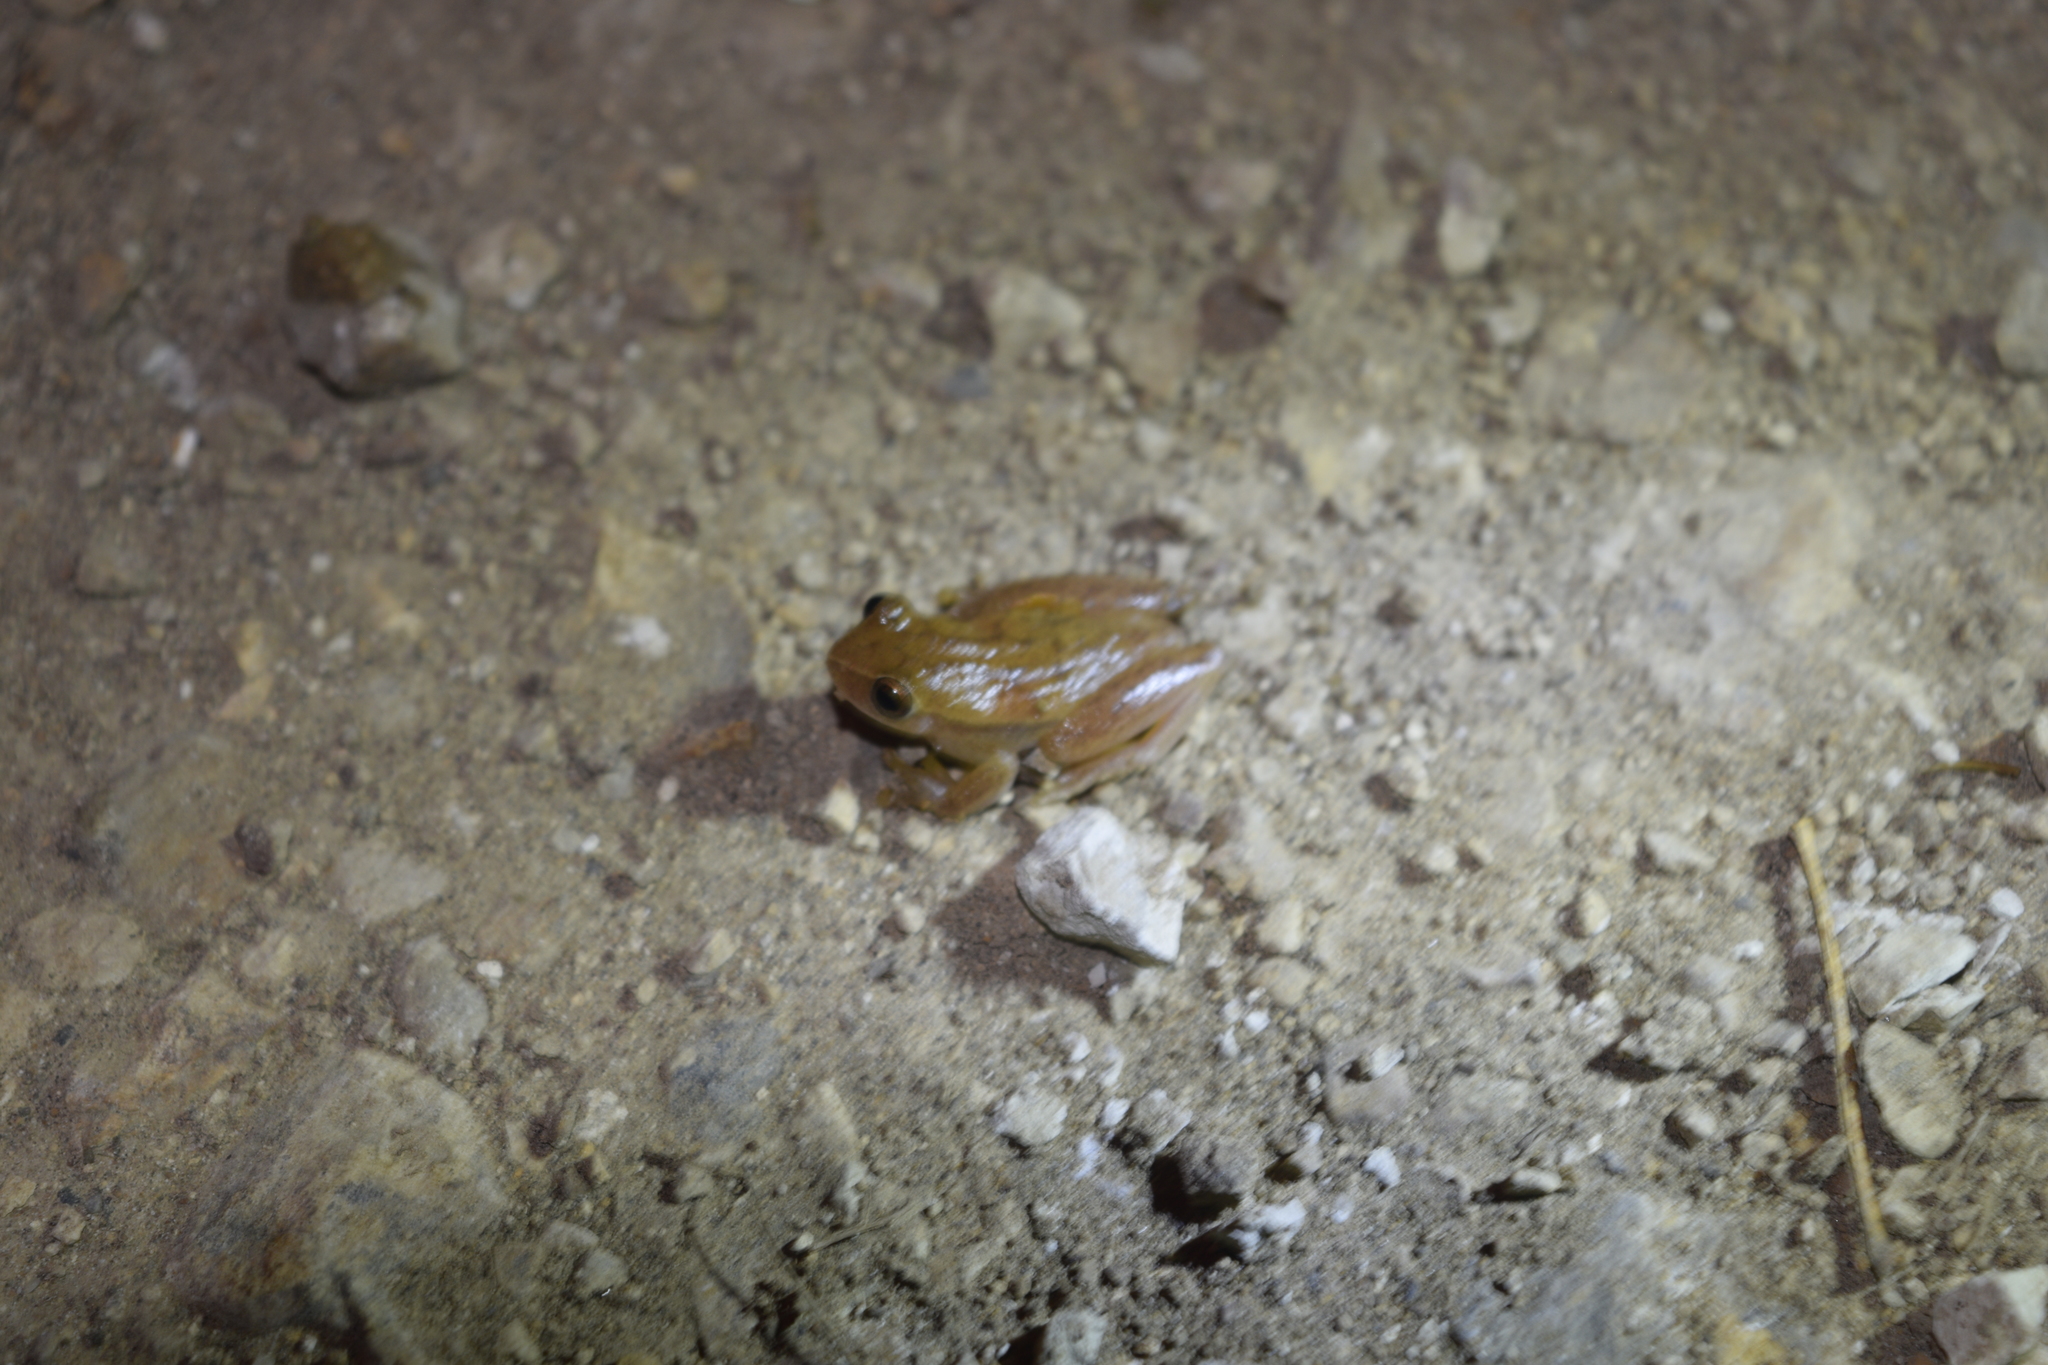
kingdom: Animalia
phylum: Chordata
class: Amphibia
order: Anura
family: Hylidae
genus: Dendropsophus
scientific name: Dendropsophus microcephalus
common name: Small-headed treefrog
